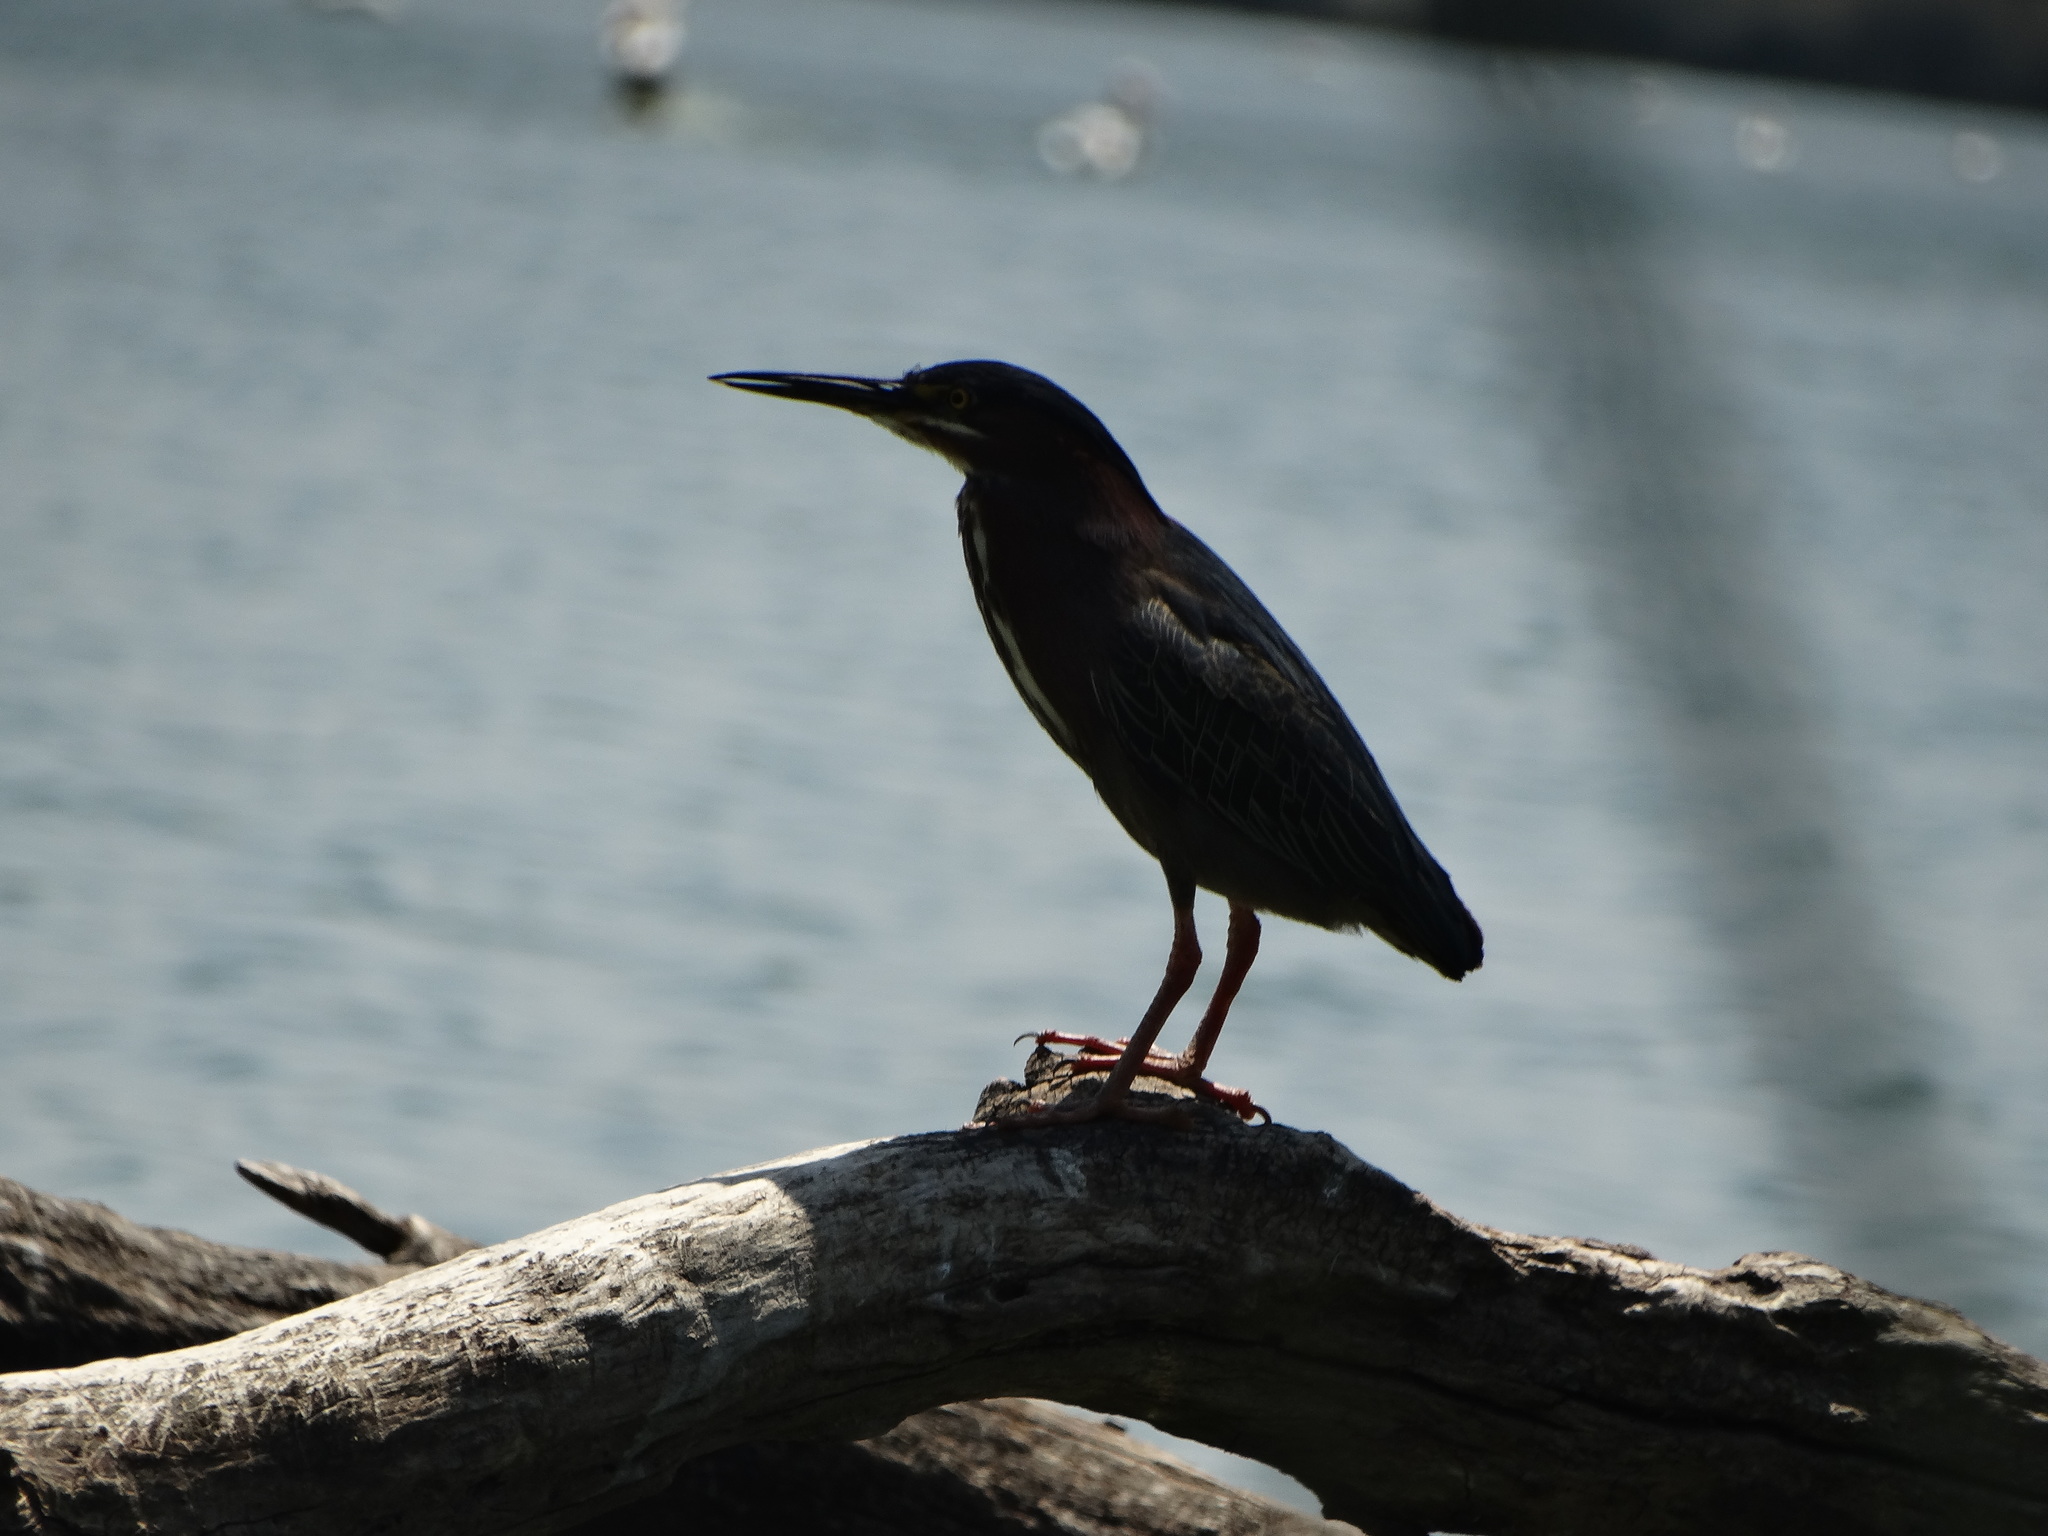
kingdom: Animalia
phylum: Chordata
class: Aves
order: Pelecaniformes
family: Ardeidae
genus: Butorides
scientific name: Butorides virescens
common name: Green heron
